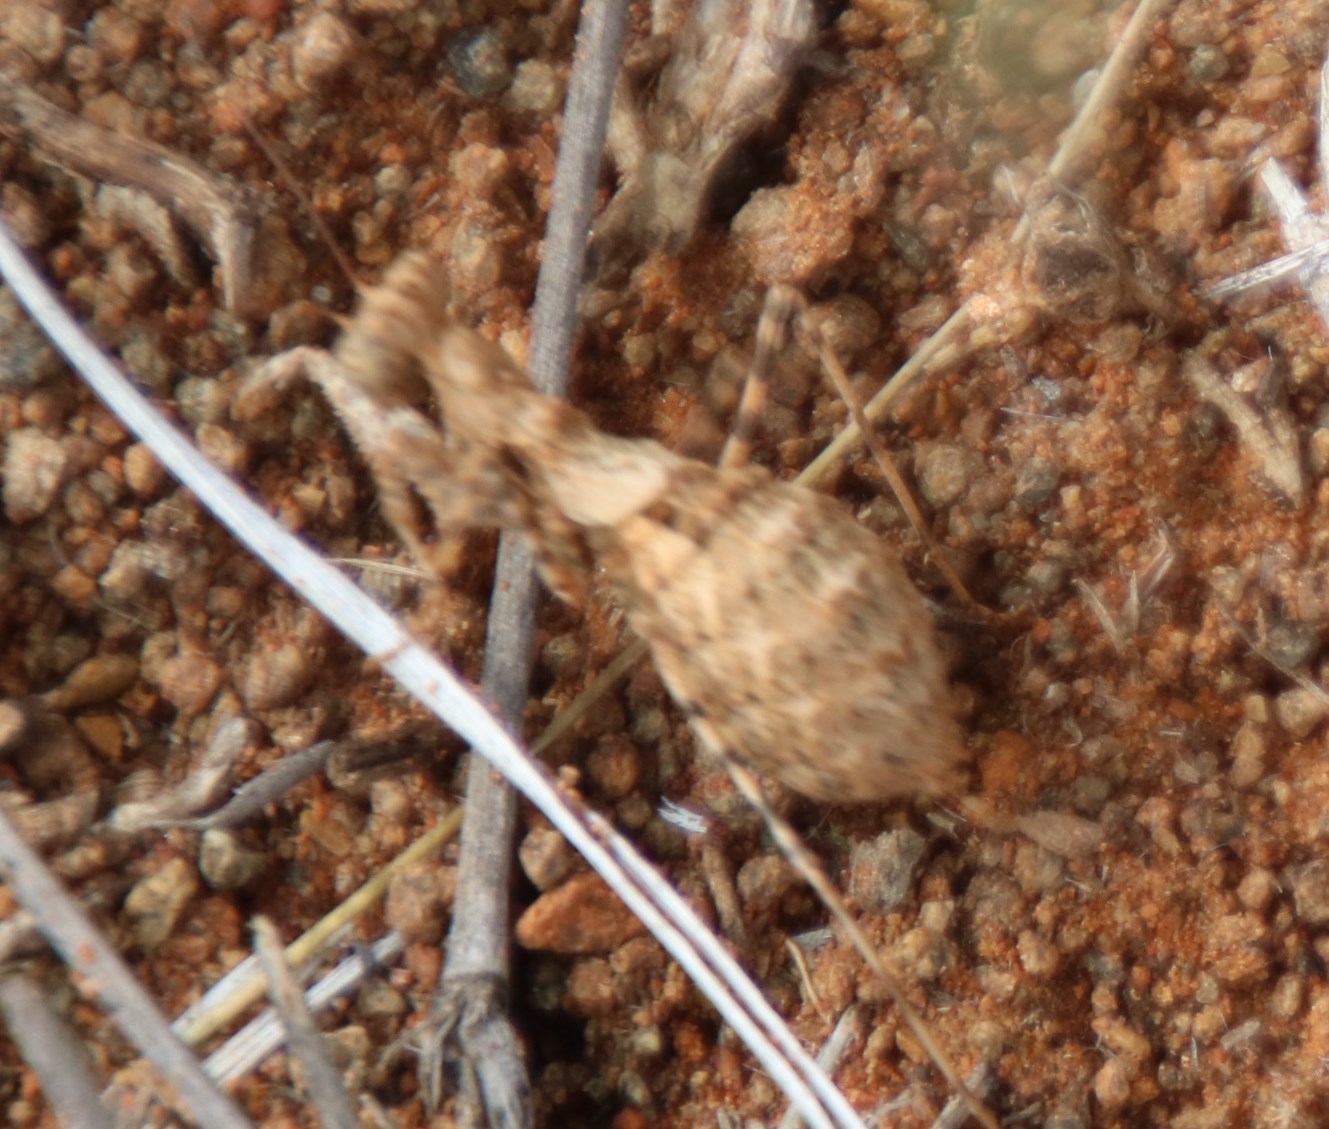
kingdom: Animalia
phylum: Arthropoda
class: Insecta
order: Mantodea
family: Chroicopteridae
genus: Ligariella
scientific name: Ligariella trigonalis
